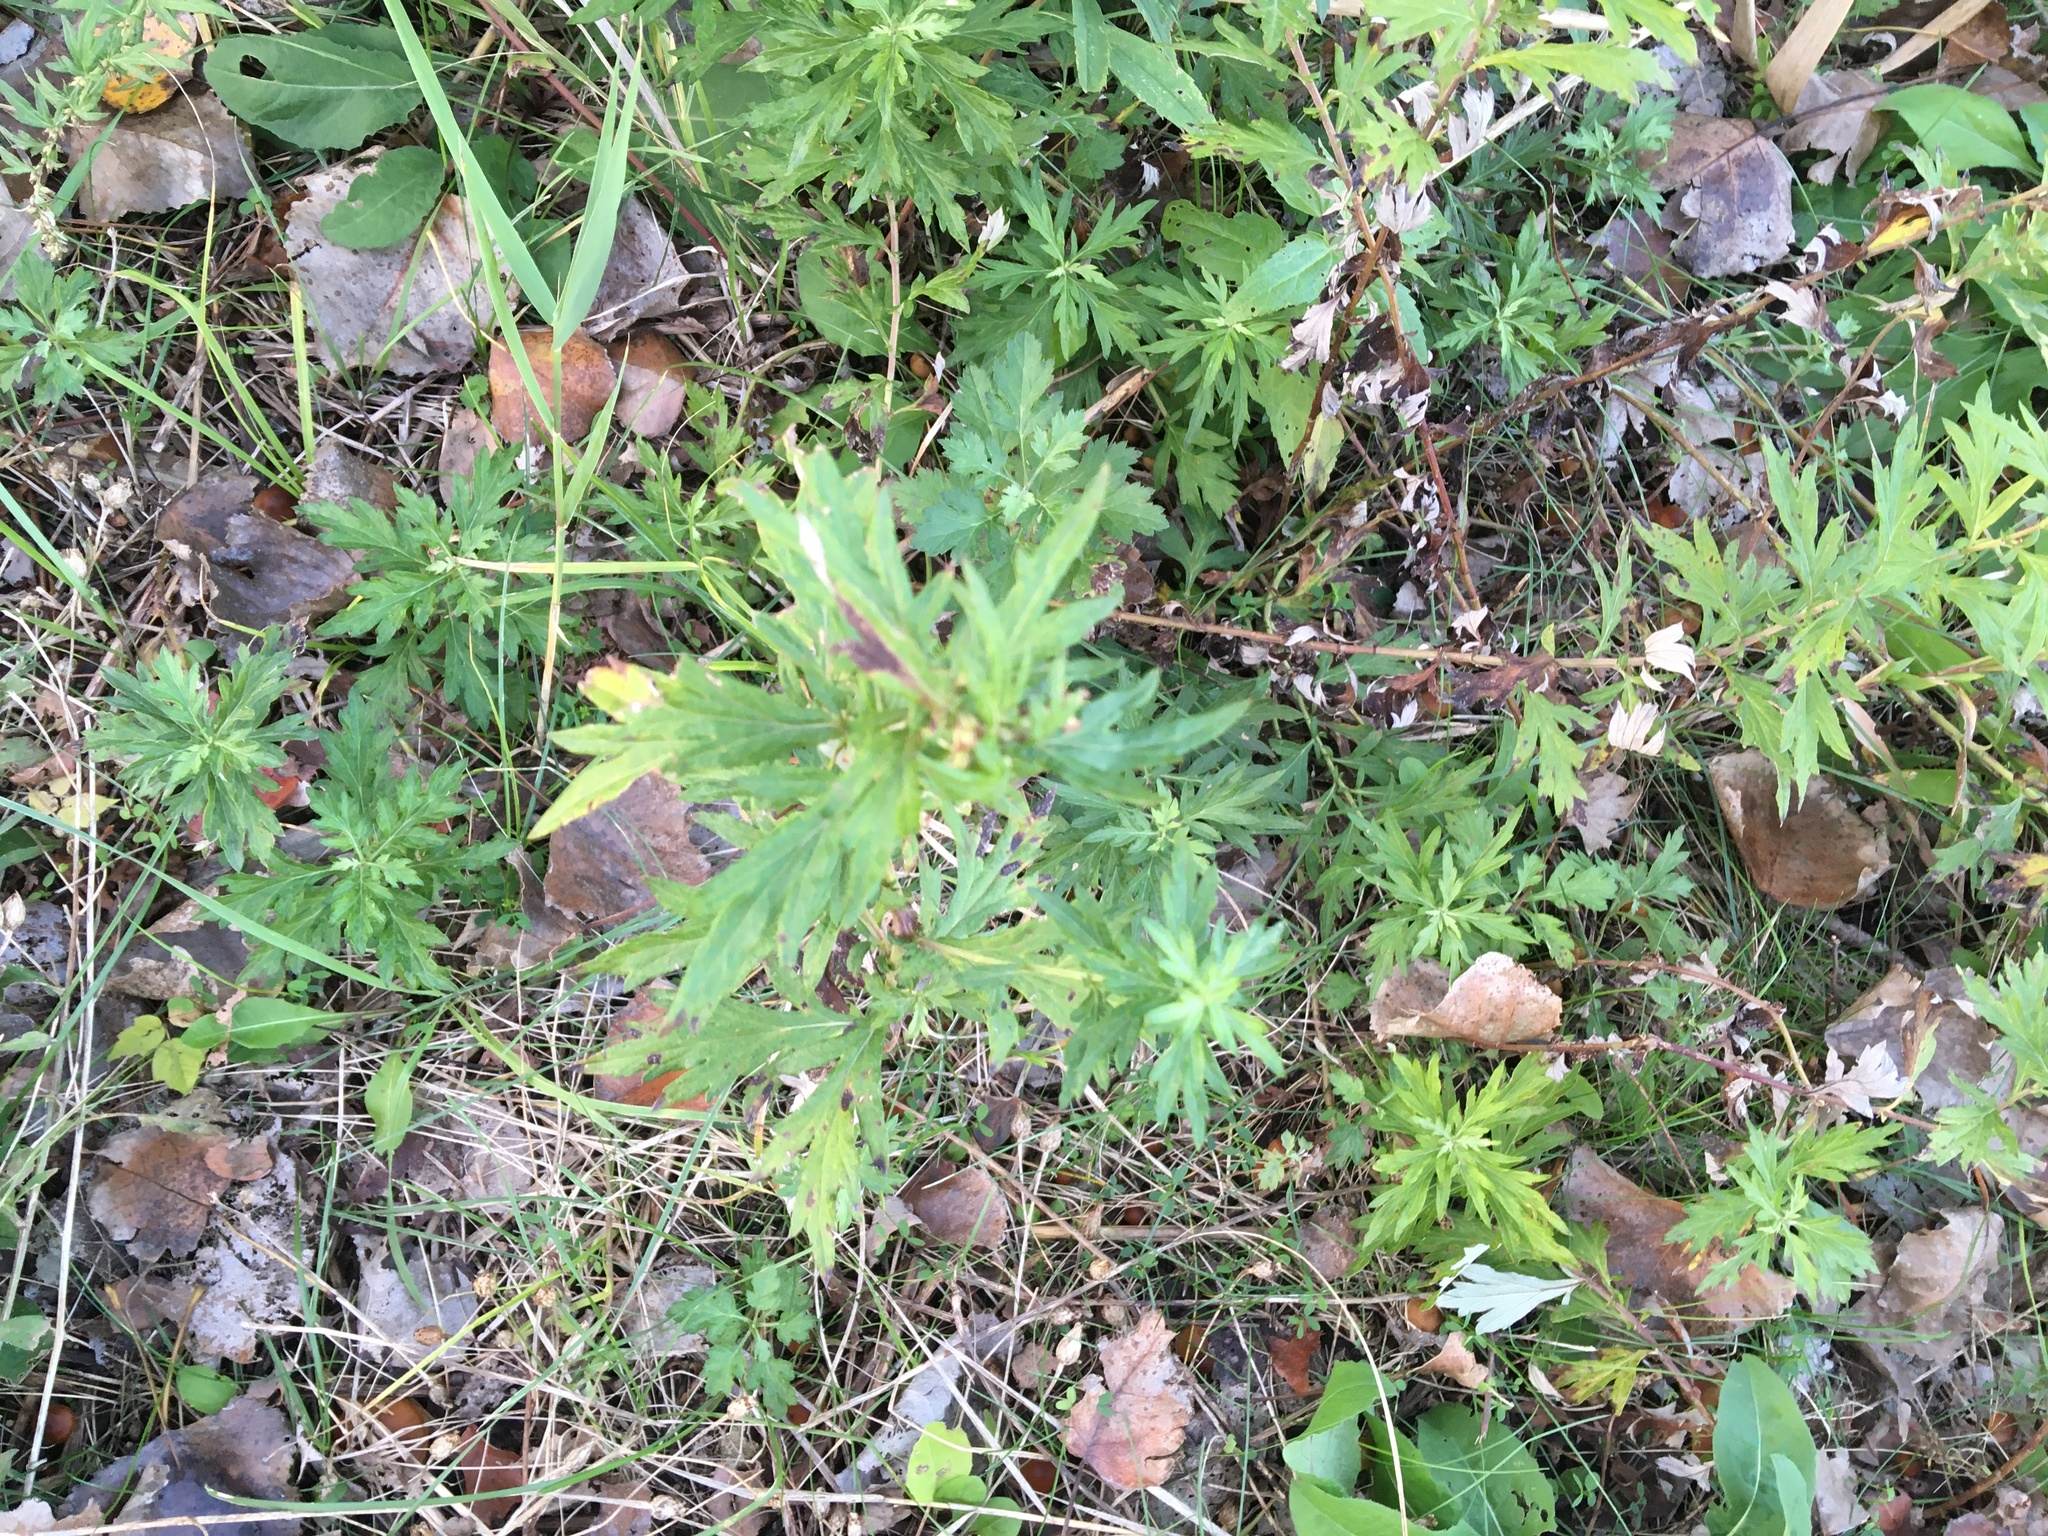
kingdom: Plantae
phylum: Tracheophyta
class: Magnoliopsida
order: Asterales
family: Asteraceae
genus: Artemisia
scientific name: Artemisia vulgaris
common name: Mugwort
